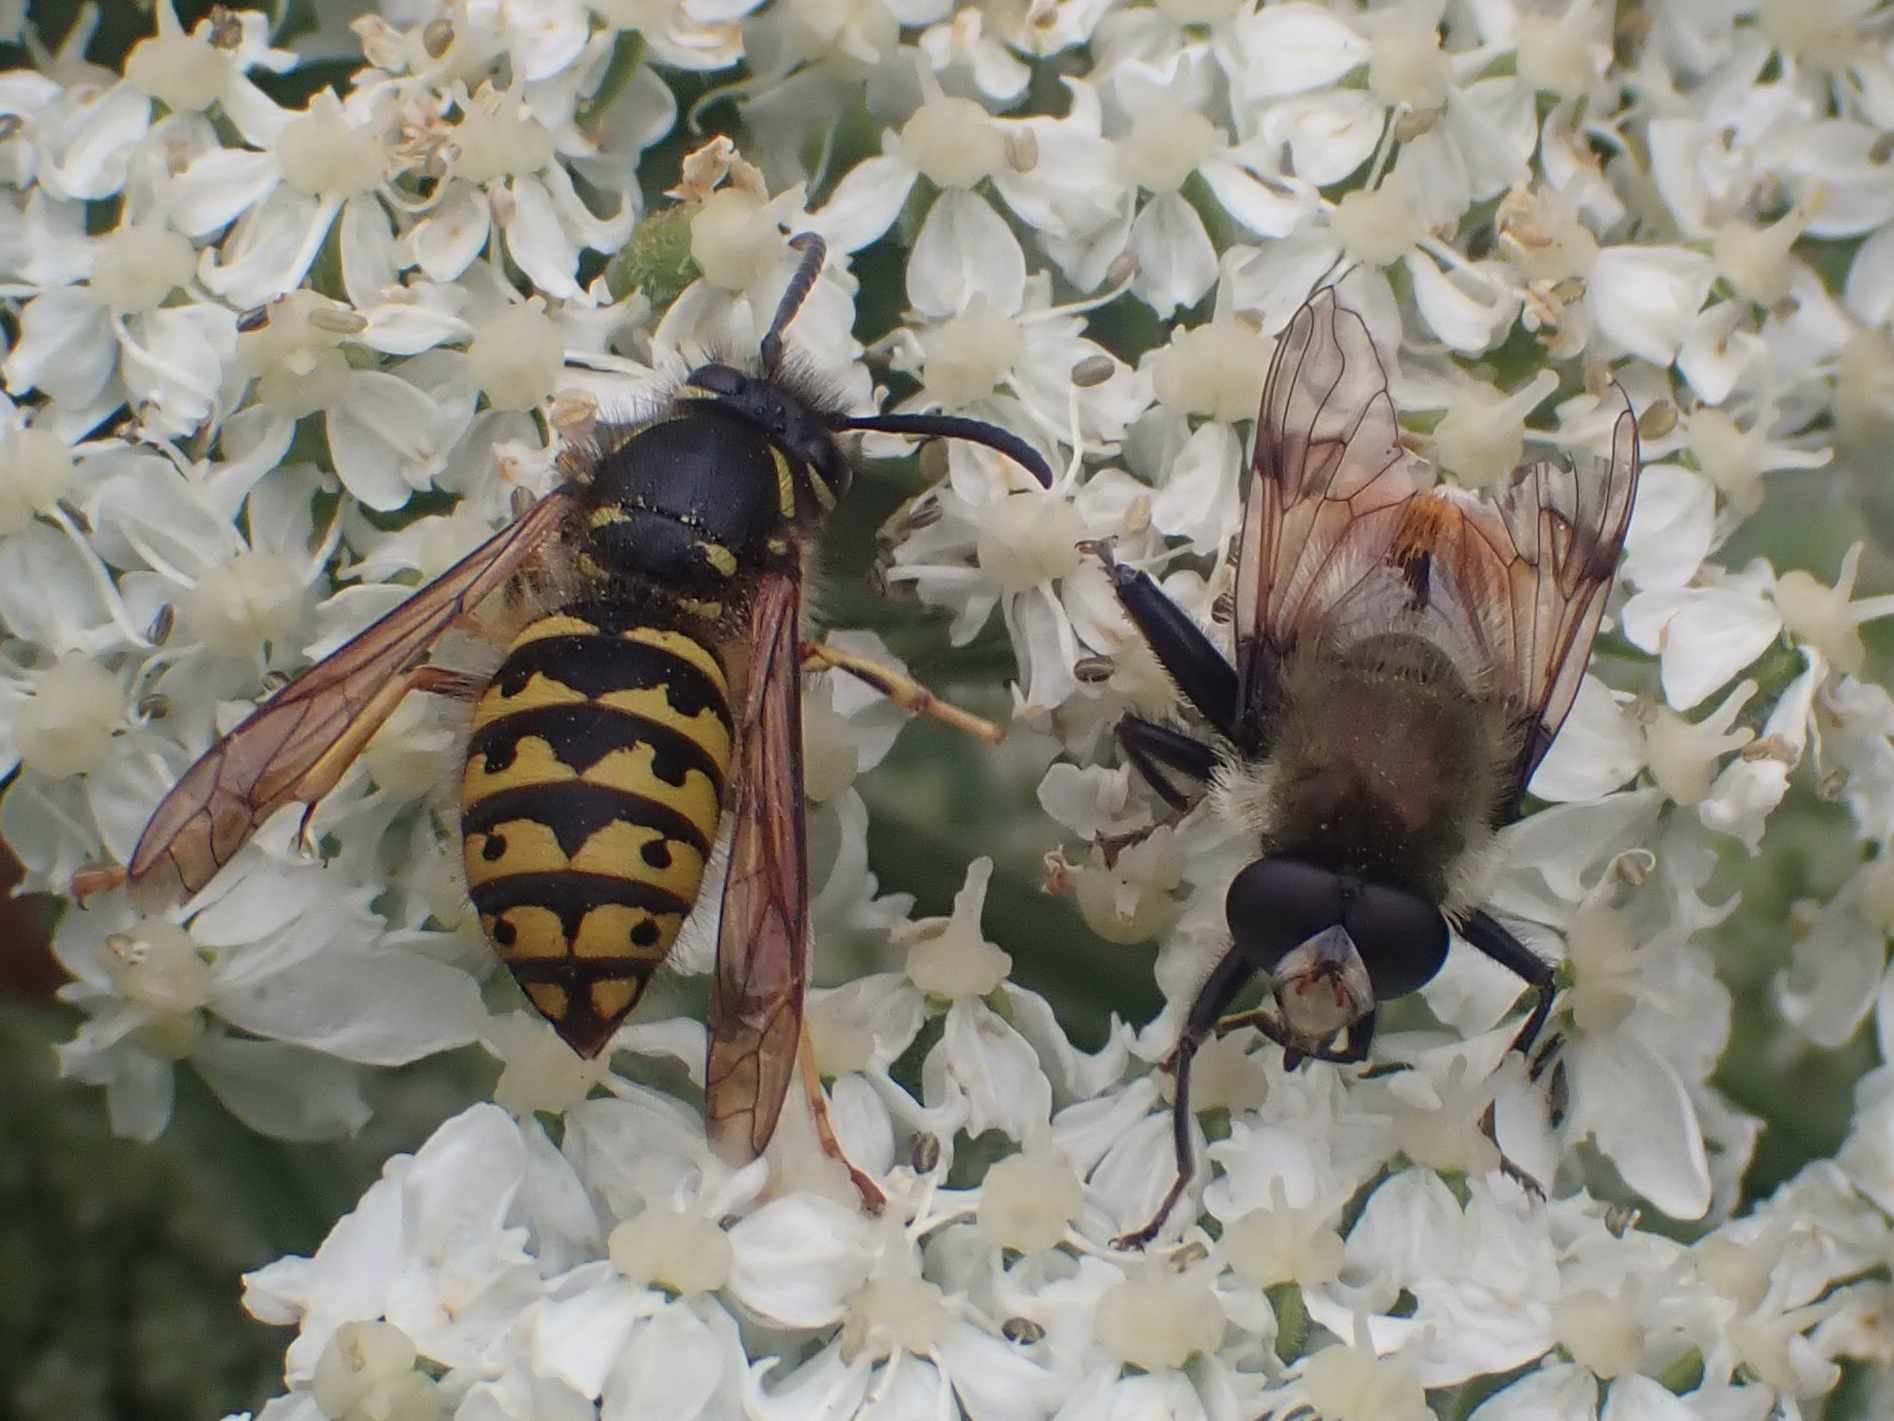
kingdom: Animalia
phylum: Arthropoda
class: Insecta
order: Hymenoptera
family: Vespidae
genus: Dolichovespula
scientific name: Dolichovespula arenaria
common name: Aerial yellowjacket
